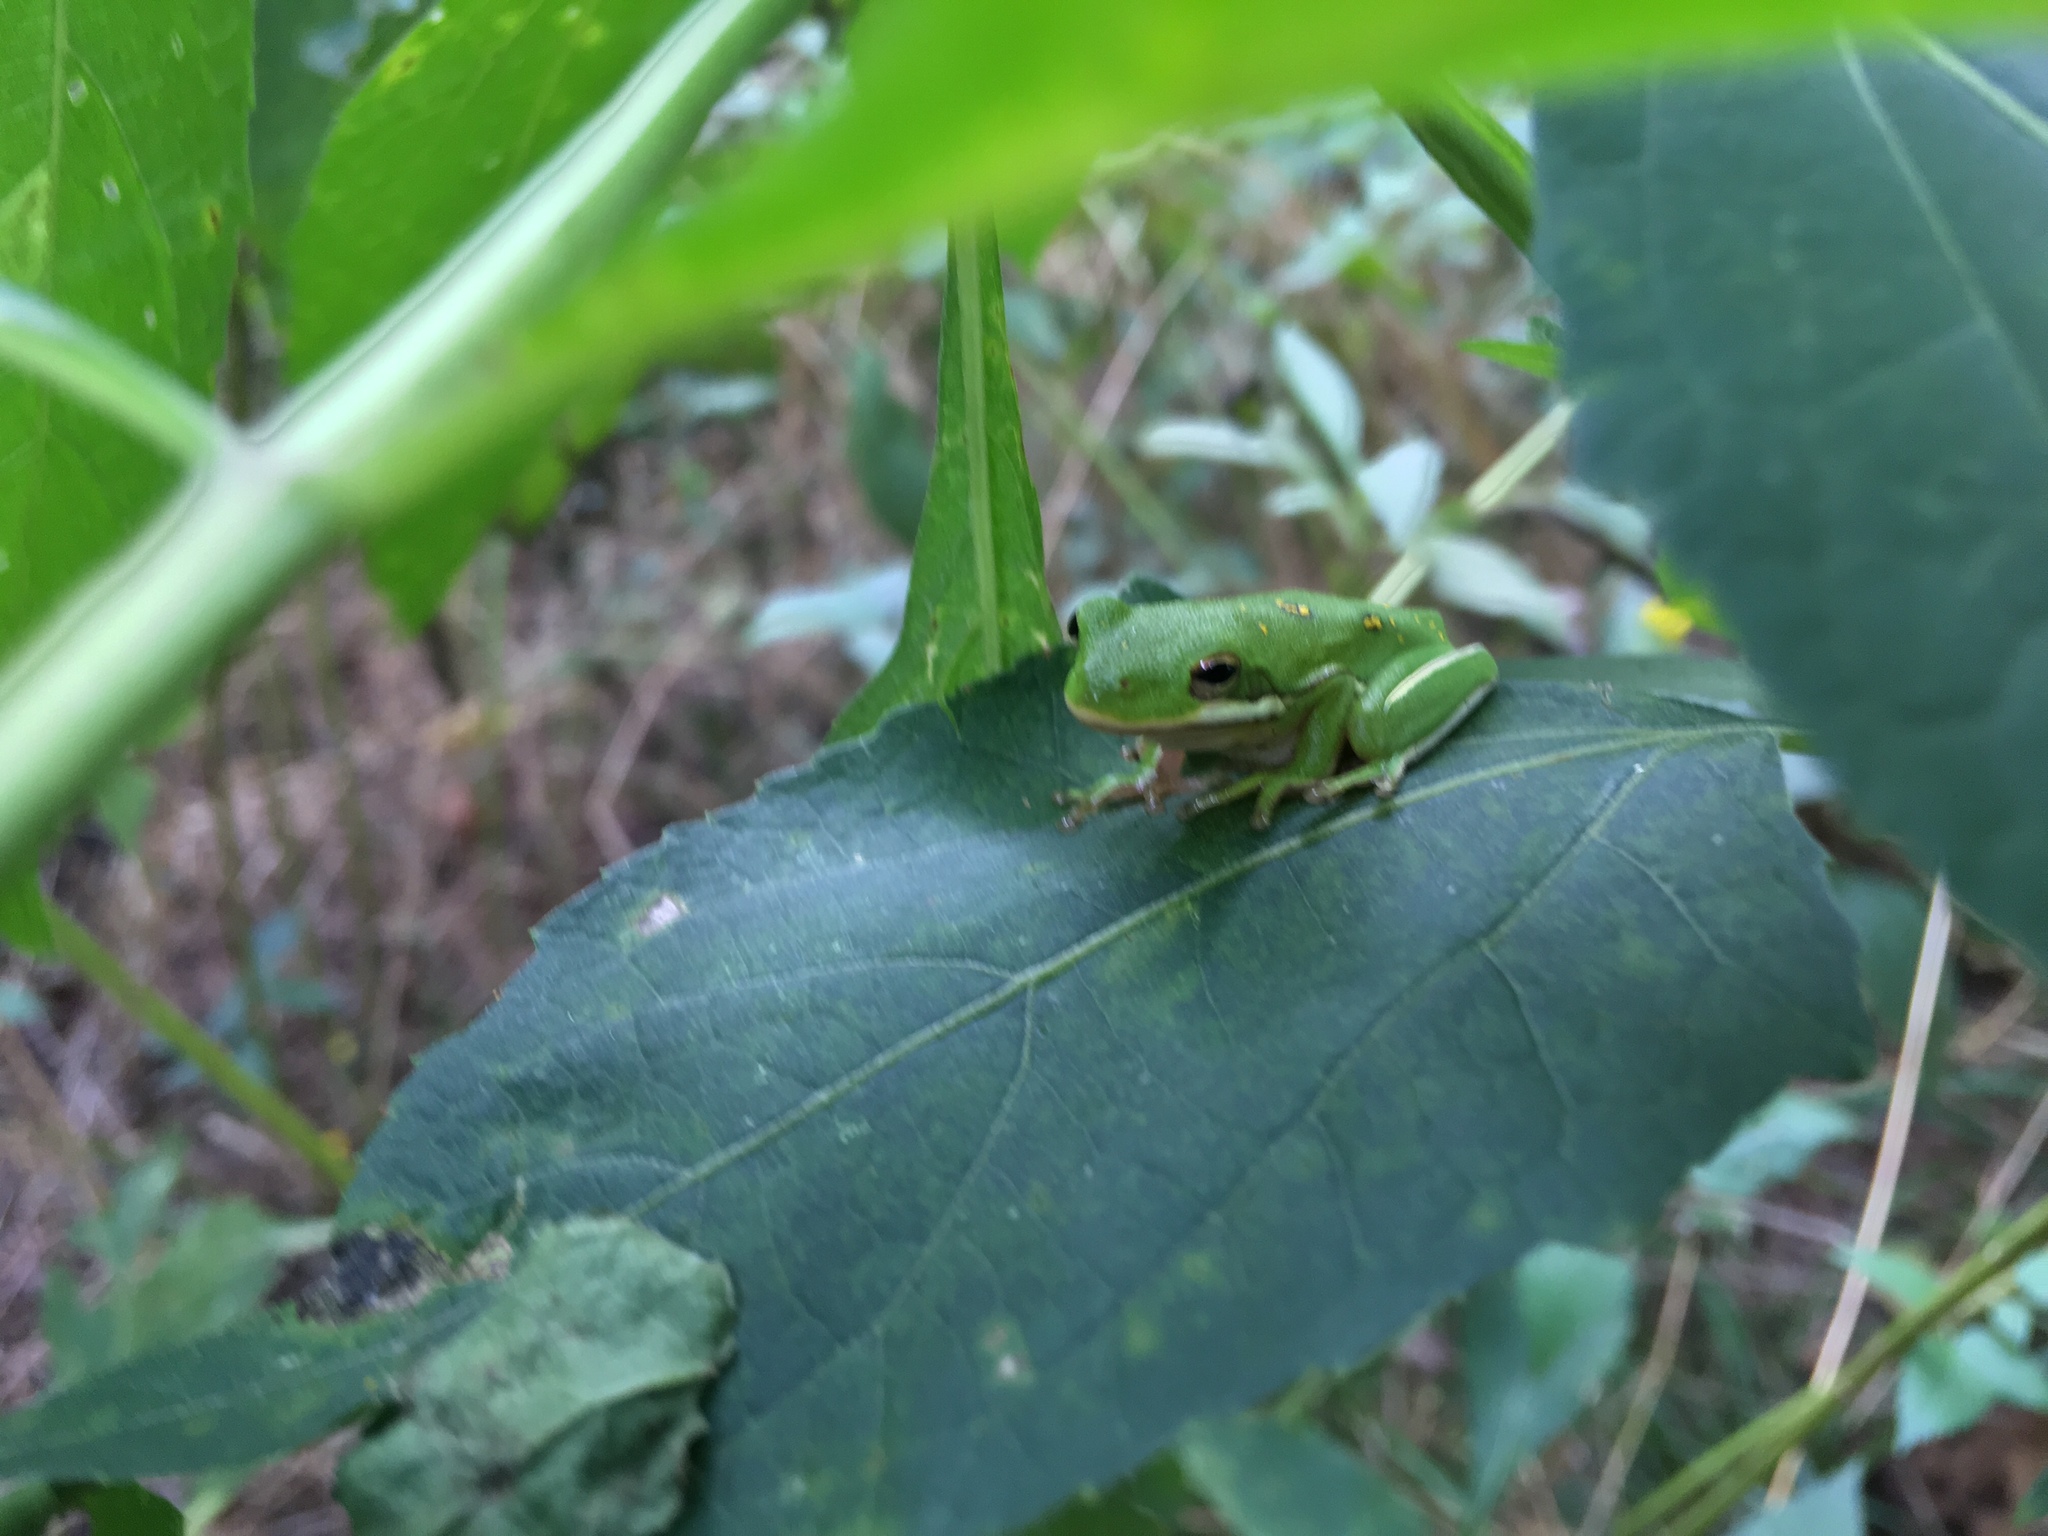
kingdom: Animalia
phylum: Chordata
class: Amphibia
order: Anura
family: Hylidae
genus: Dryophytes
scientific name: Dryophytes cinereus
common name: Green treefrog
